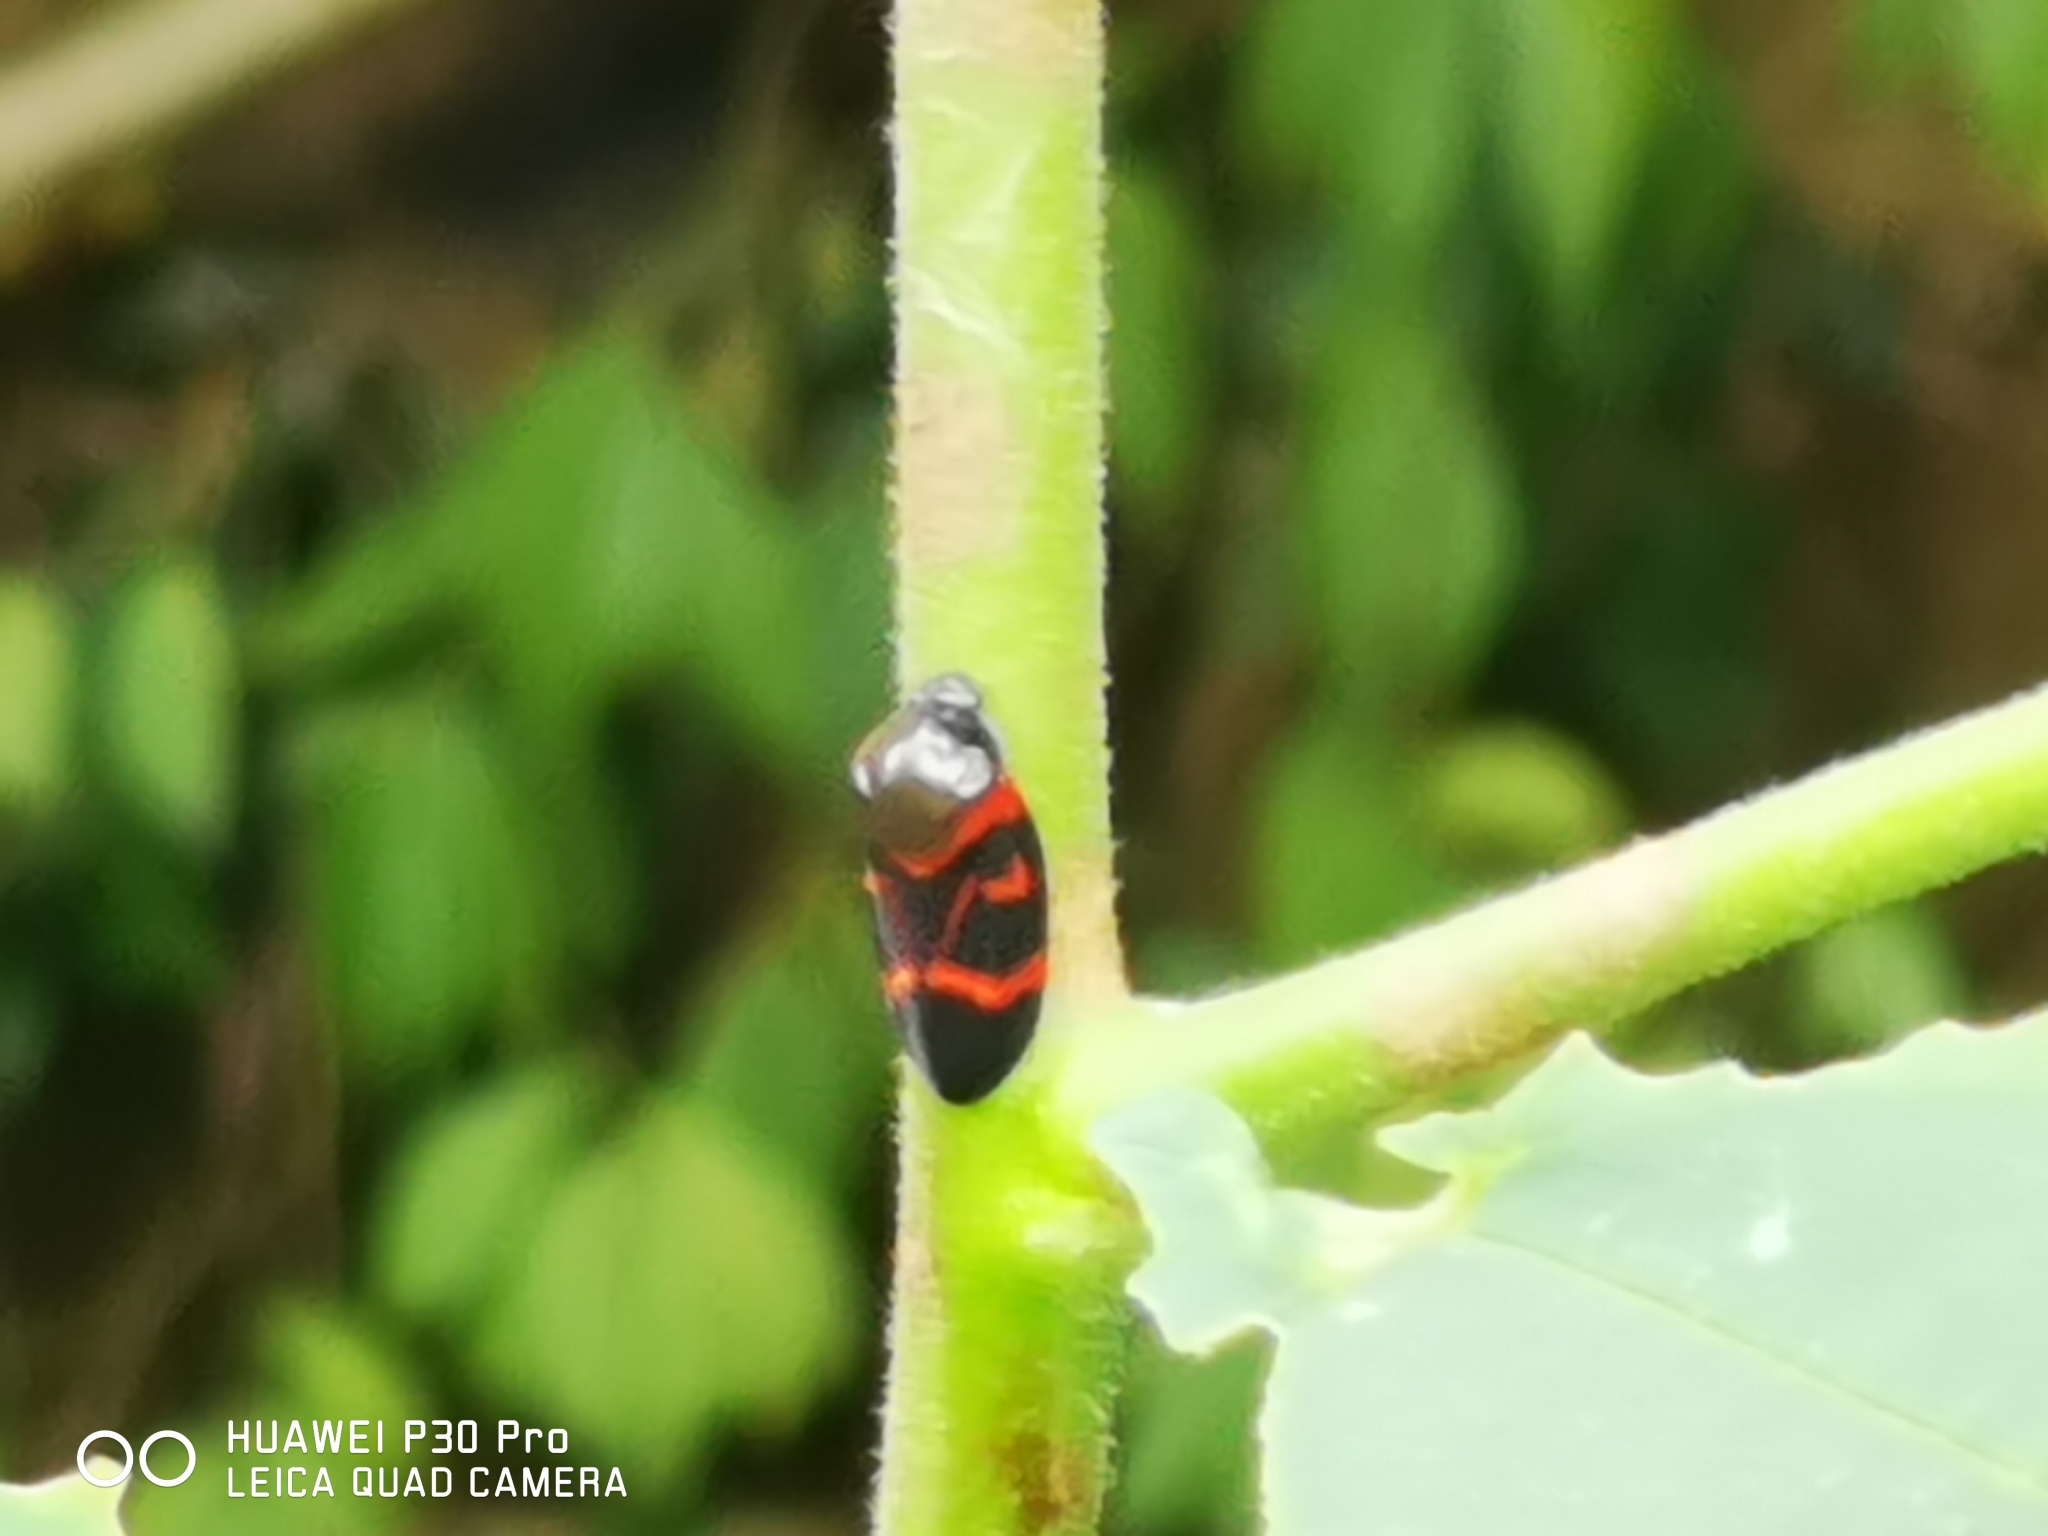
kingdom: Animalia
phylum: Arthropoda
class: Insecta
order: Hemiptera
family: Cercopidae
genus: Okiscarta
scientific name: Okiscarta uchidae
